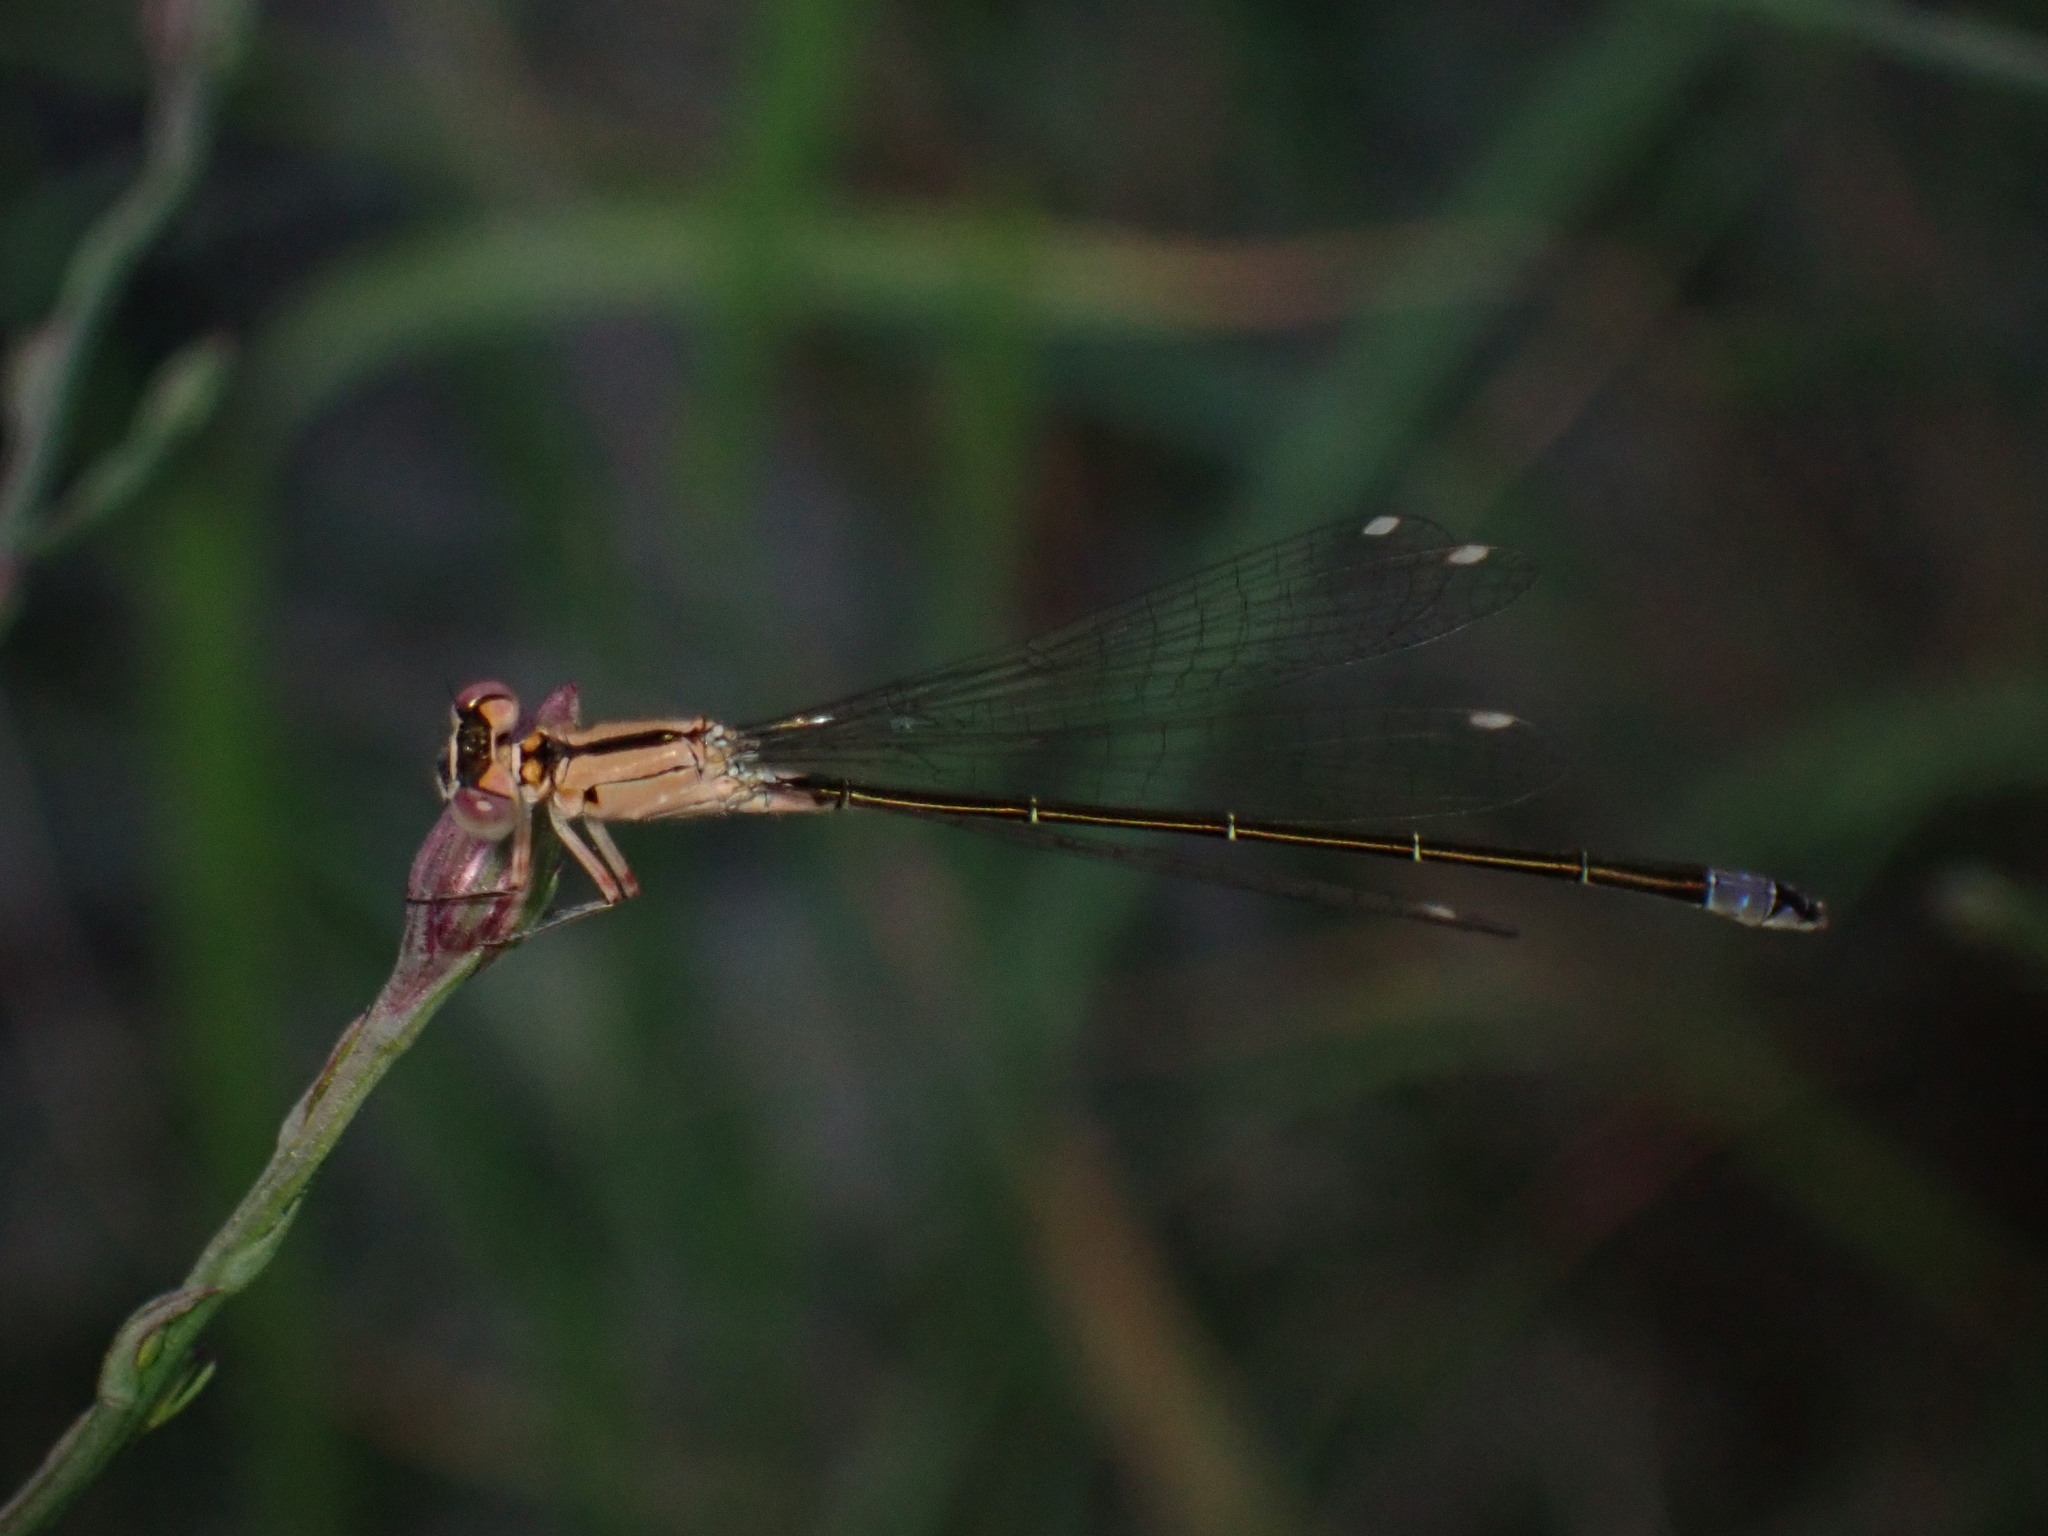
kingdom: Animalia
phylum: Arthropoda
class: Insecta
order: Odonata
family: Coenagrionidae
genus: Ischnura
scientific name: Ischnura cervula
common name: Pacific forktail
